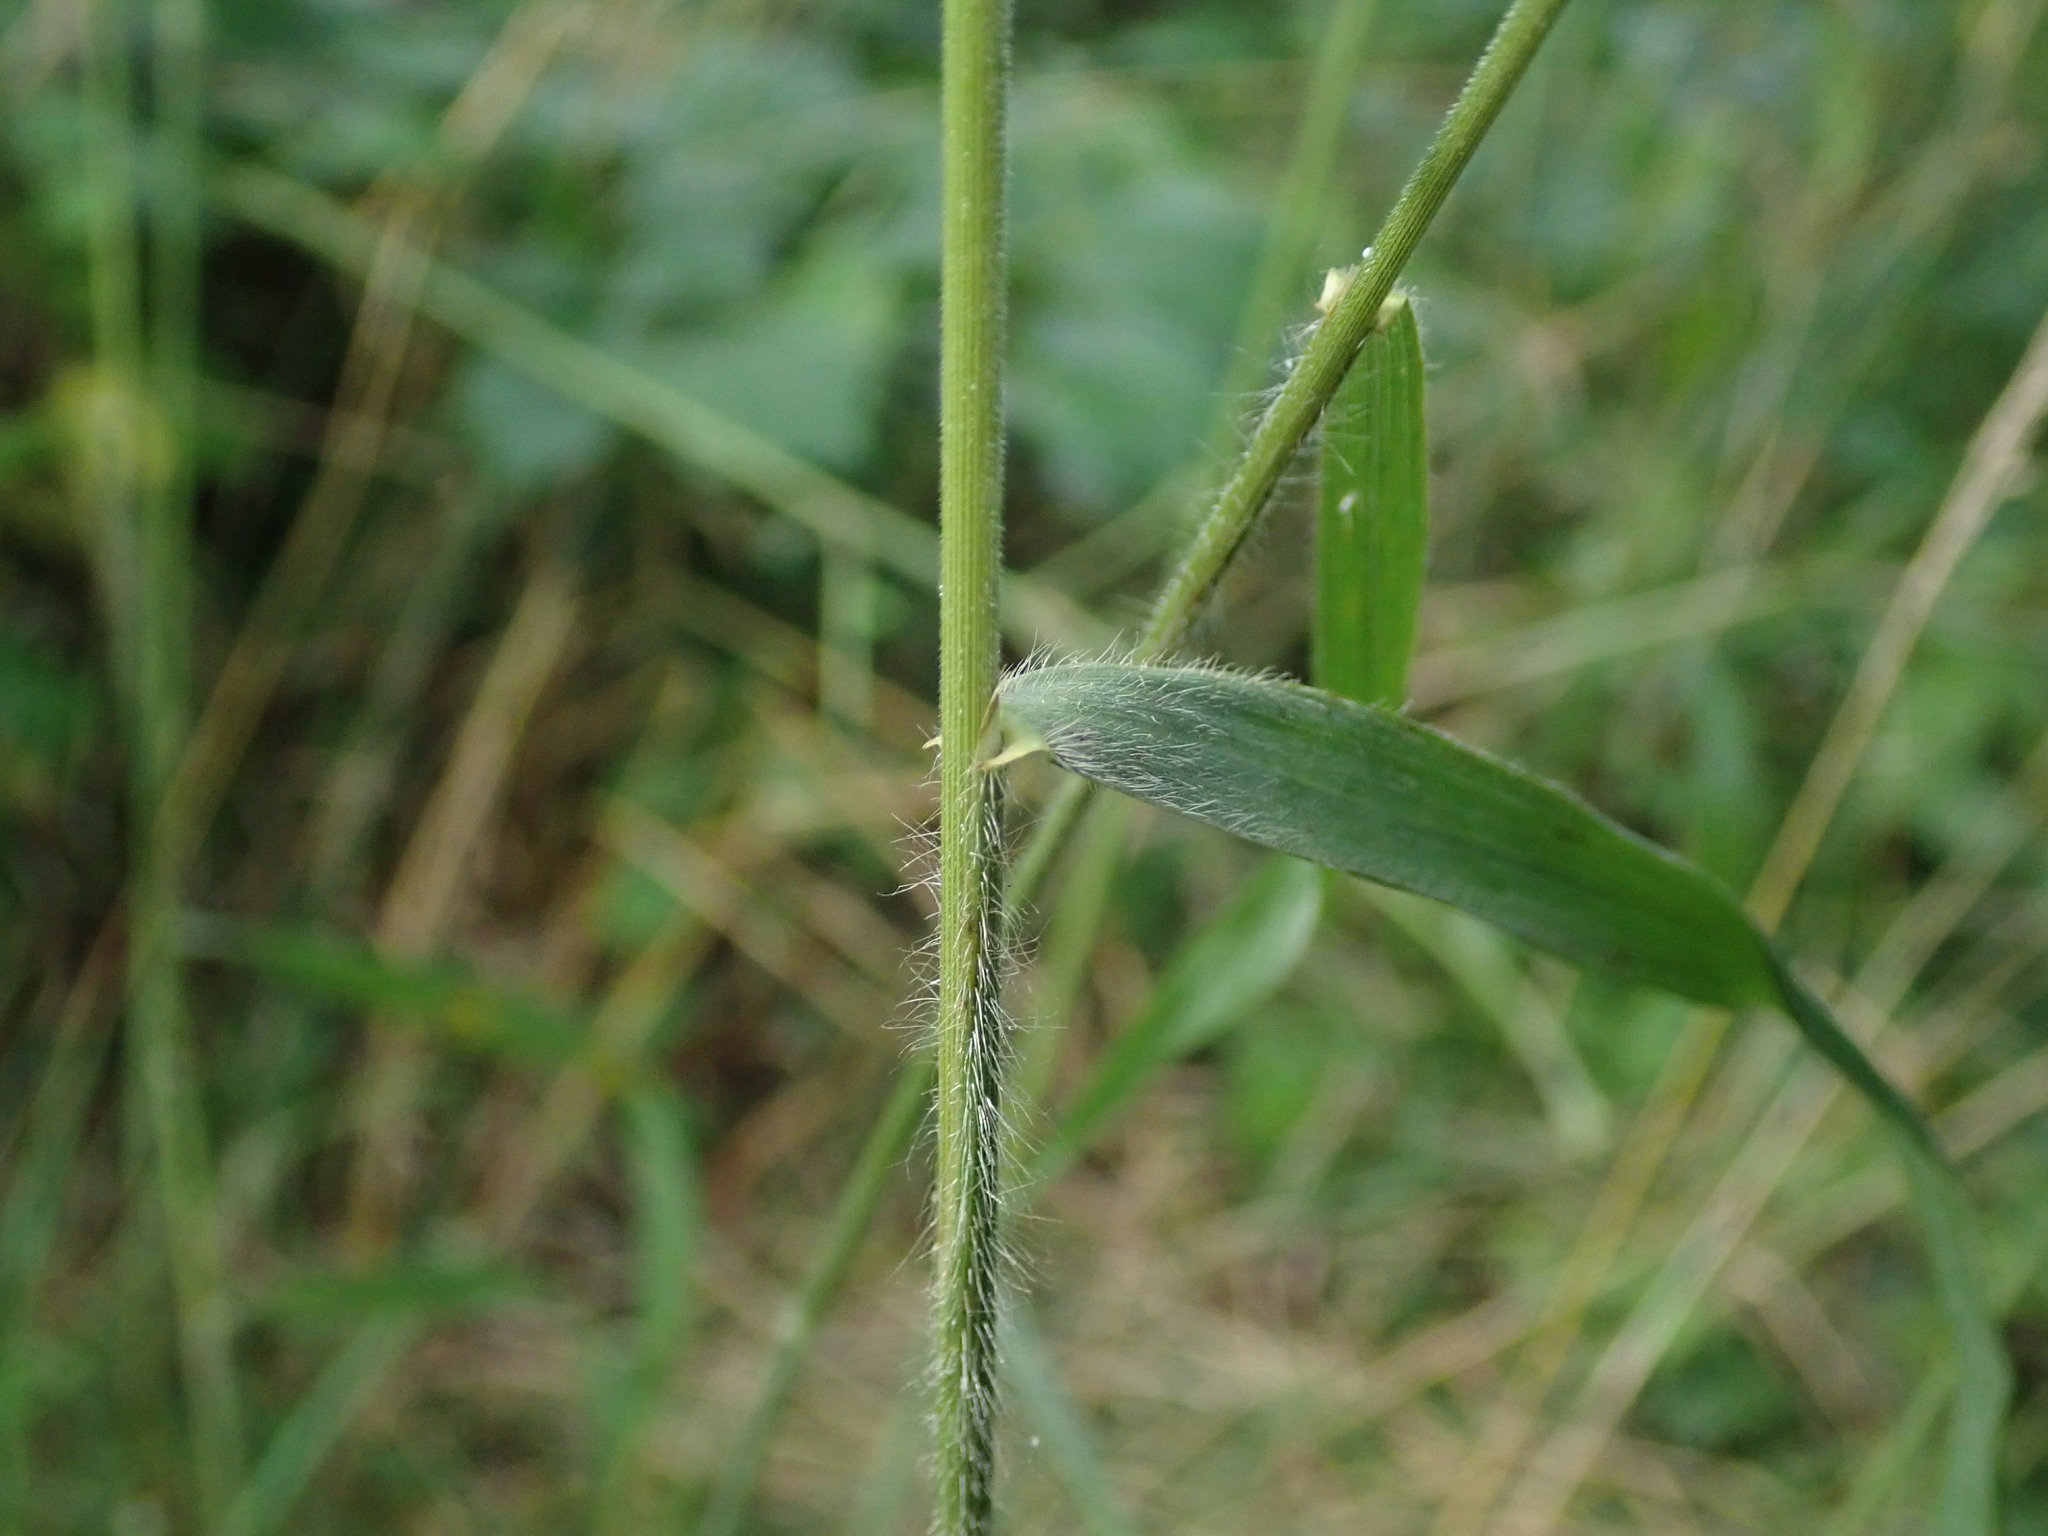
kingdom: Plantae
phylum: Tracheophyta
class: Liliopsida
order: Poales
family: Poaceae
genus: Bromus
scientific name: Bromus ramosus
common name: Hairy brome
